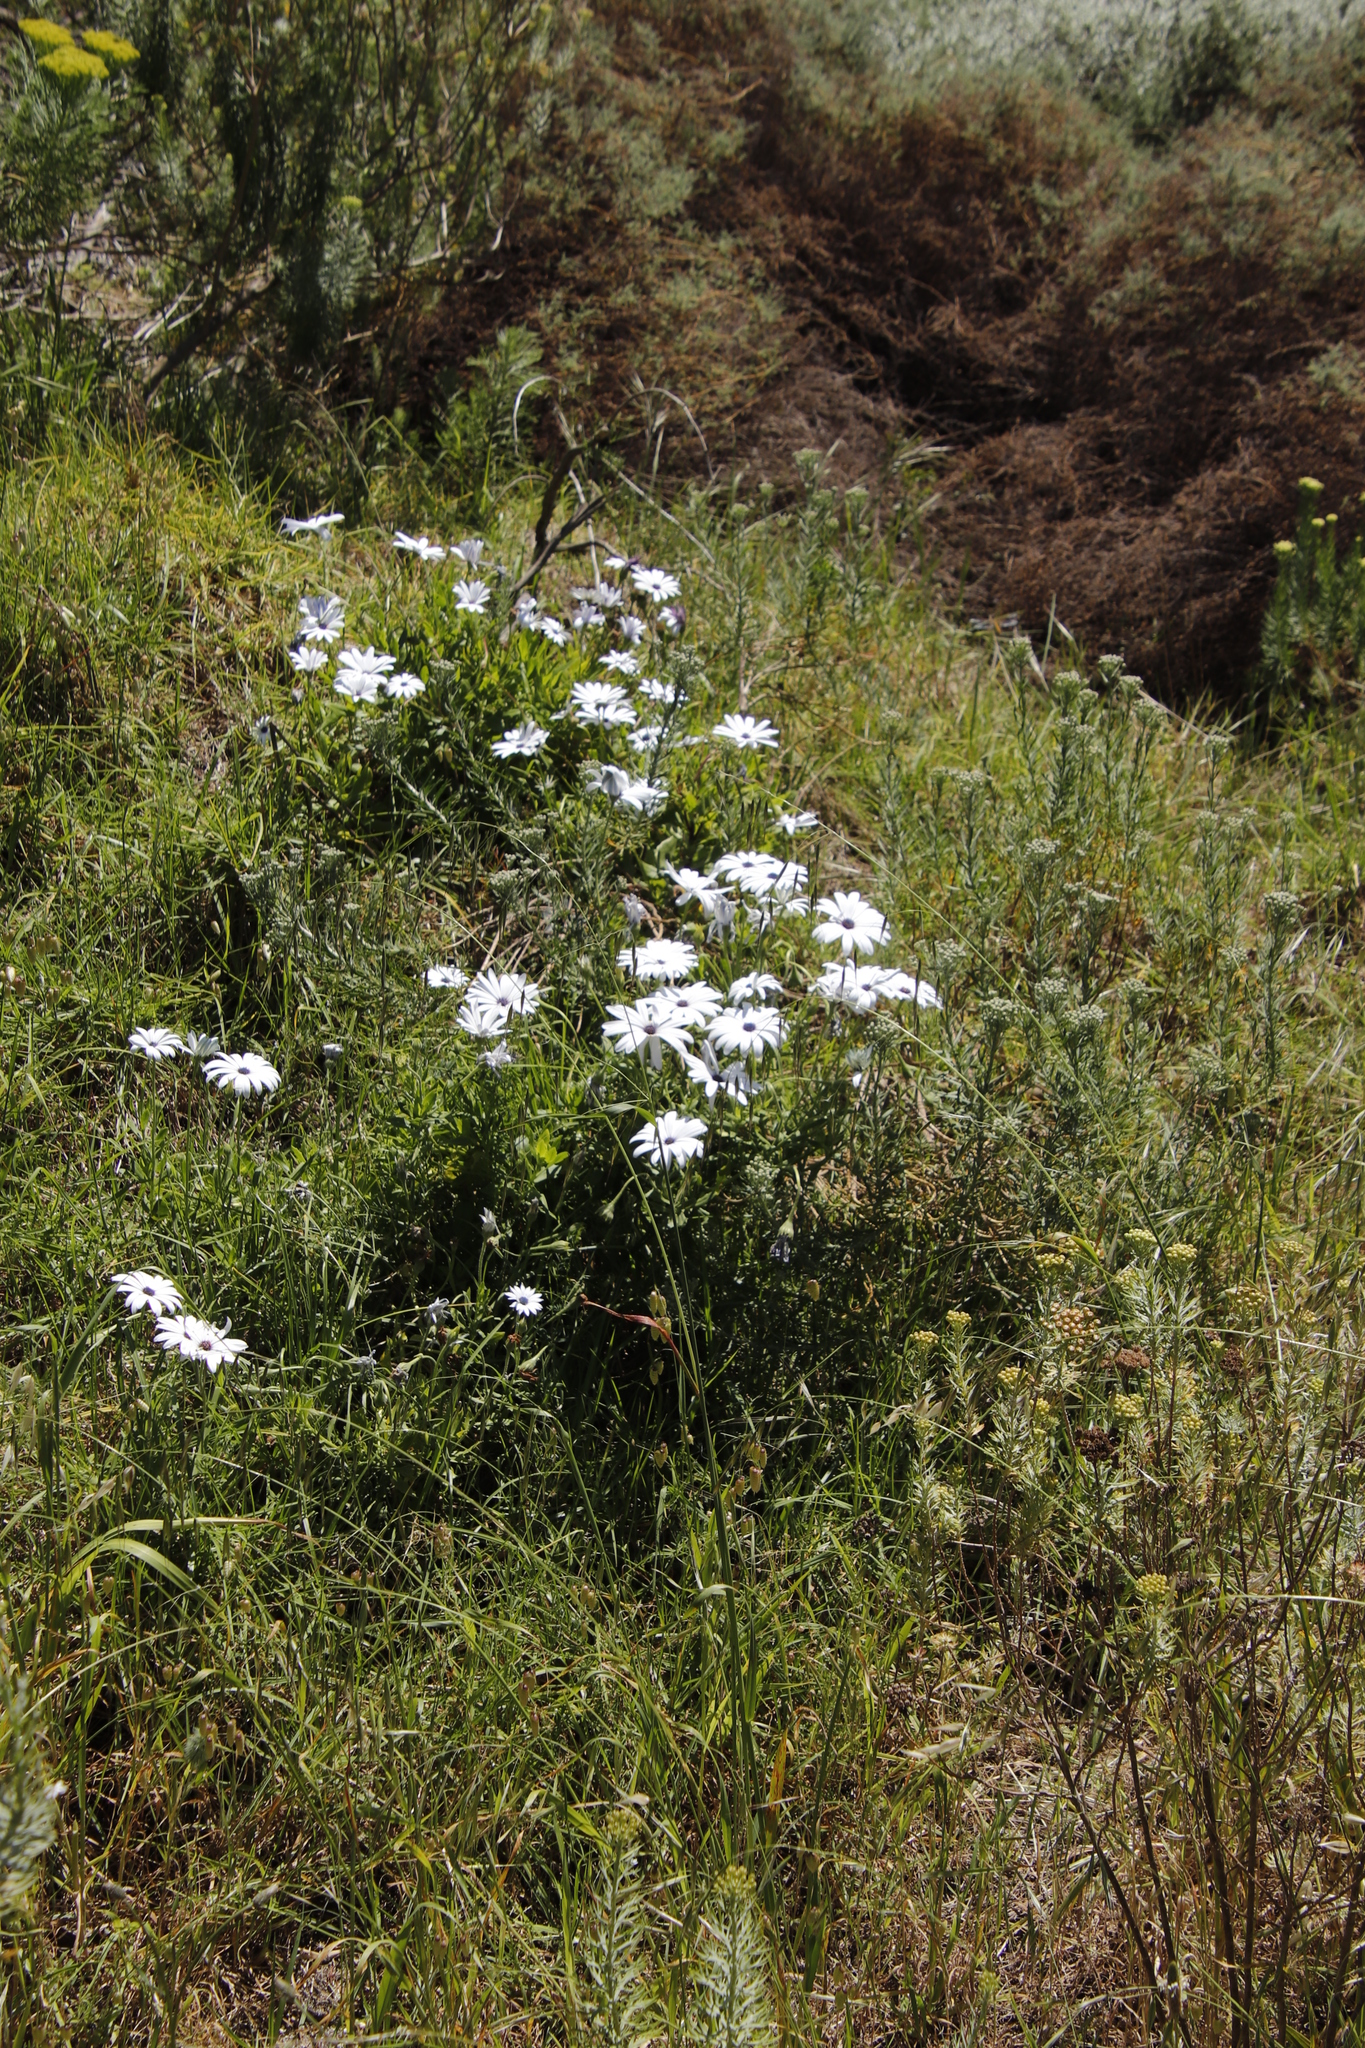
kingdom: Plantae
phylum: Tracheophyta
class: Magnoliopsida
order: Asterales
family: Asteraceae
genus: Dimorphotheca
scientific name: Dimorphotheca ecklonis
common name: Vanstaden's river daisy
